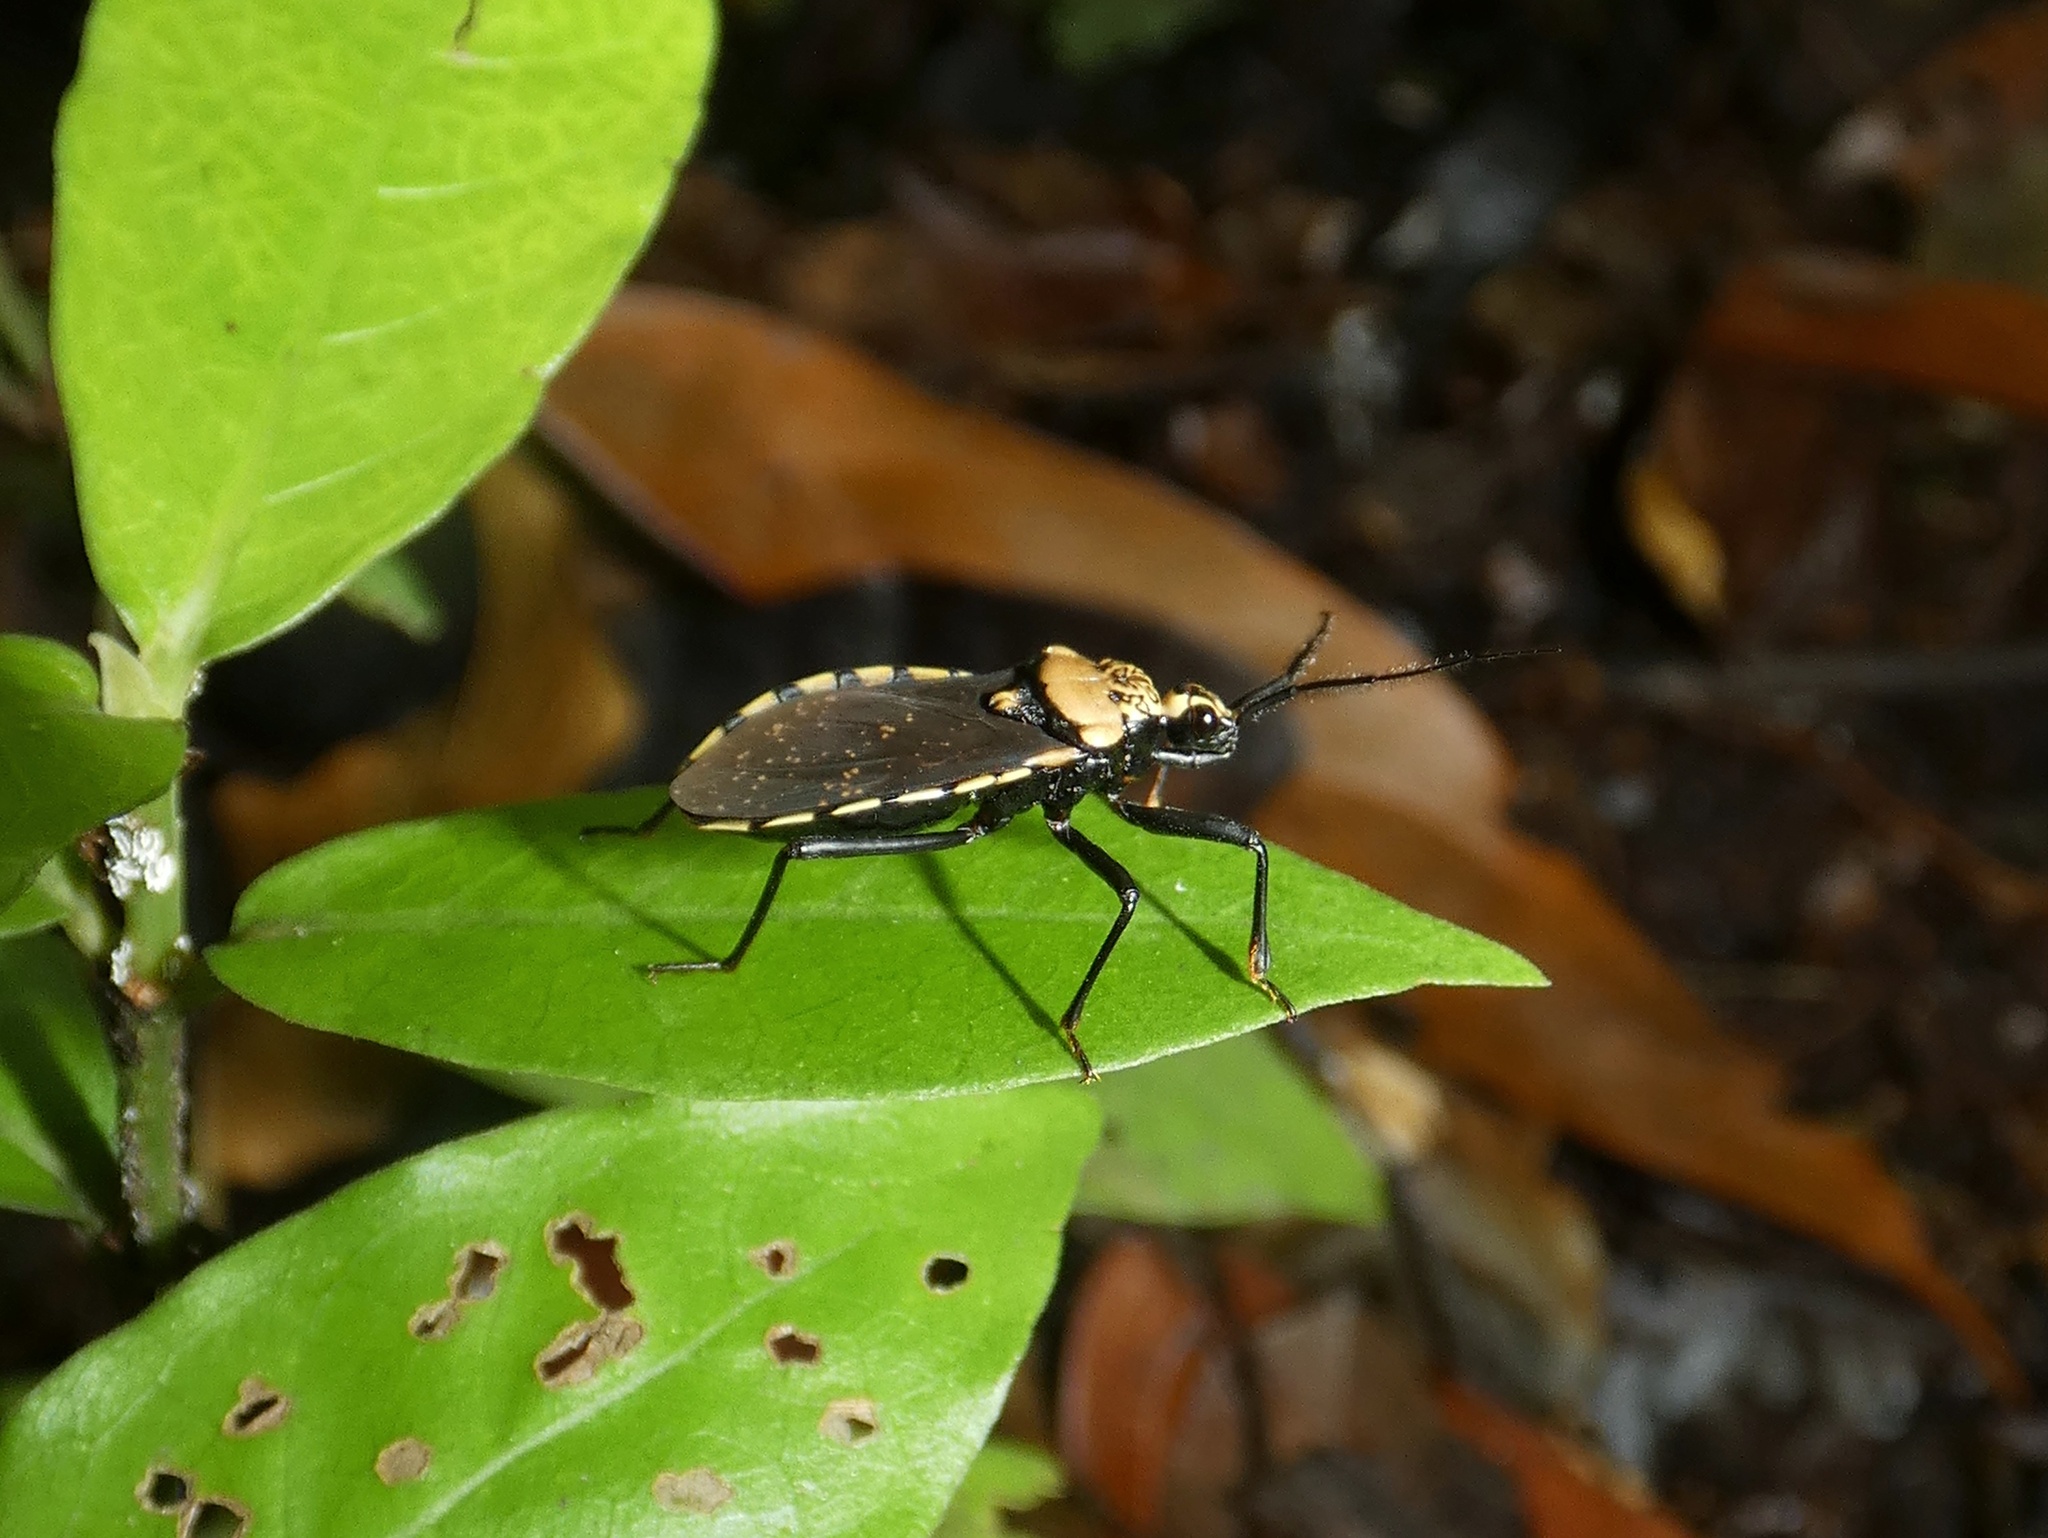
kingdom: Animalia
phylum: Arthropoda
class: Insecta
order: Hemiptera
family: Reduviidae
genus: Rhiginia
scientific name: Rhiginia conspersa
